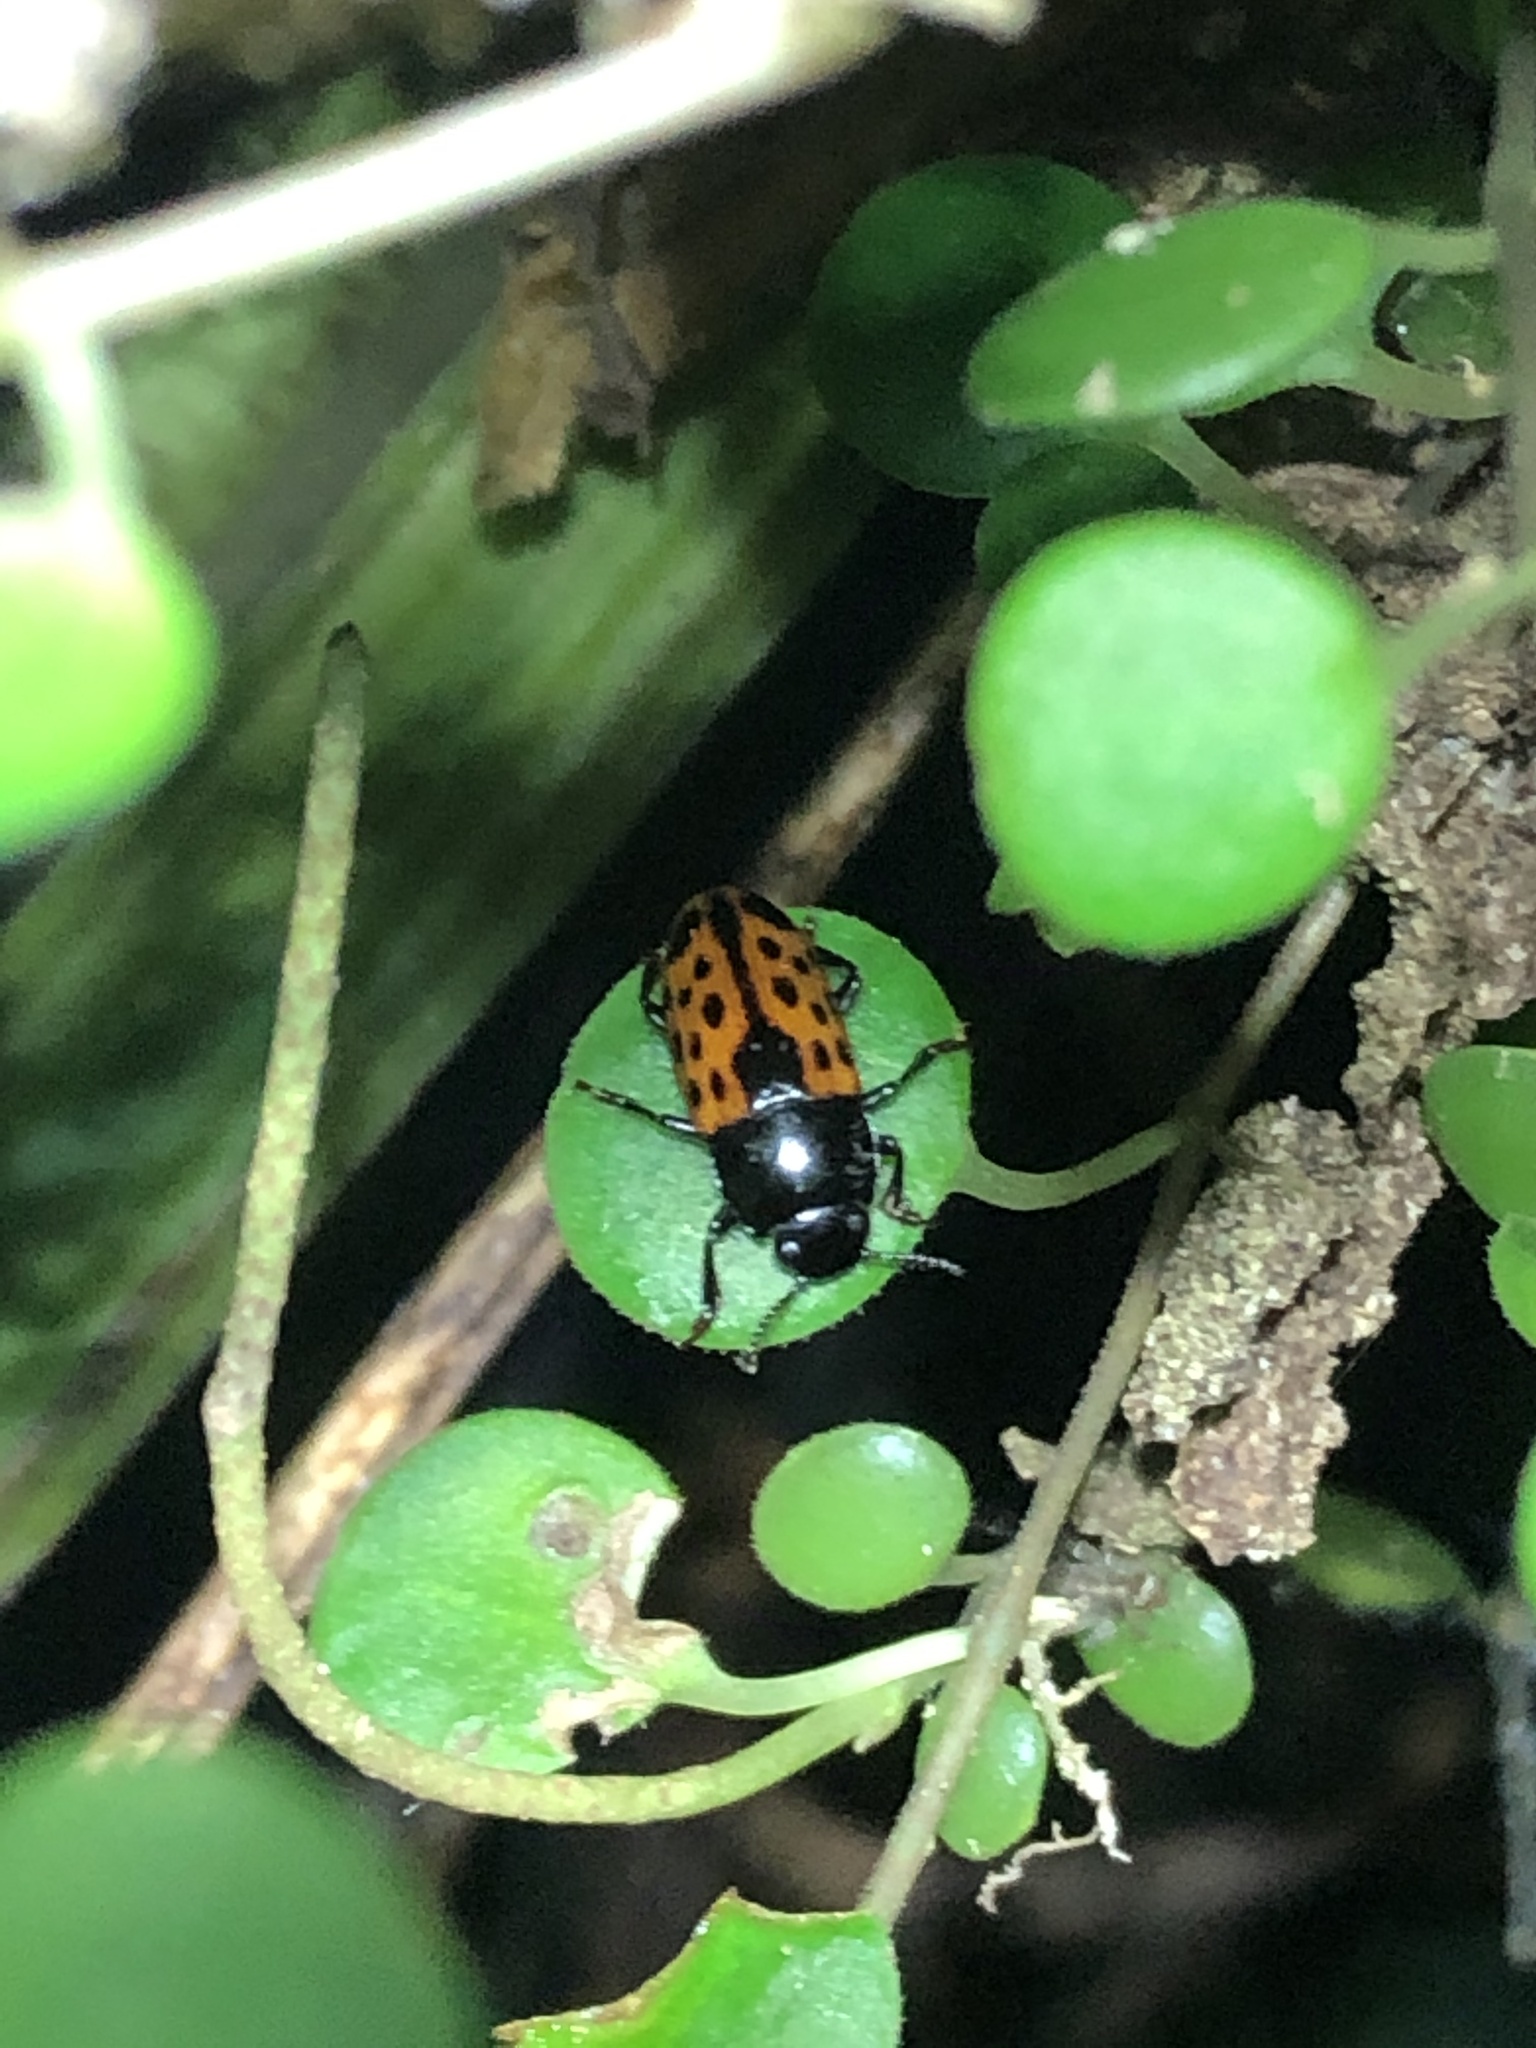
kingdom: Plantae
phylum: Tracheophyta
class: Magnoliopsida
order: Piperales
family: Piperaceae
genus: Peperomia
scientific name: Peperomia emarginella
